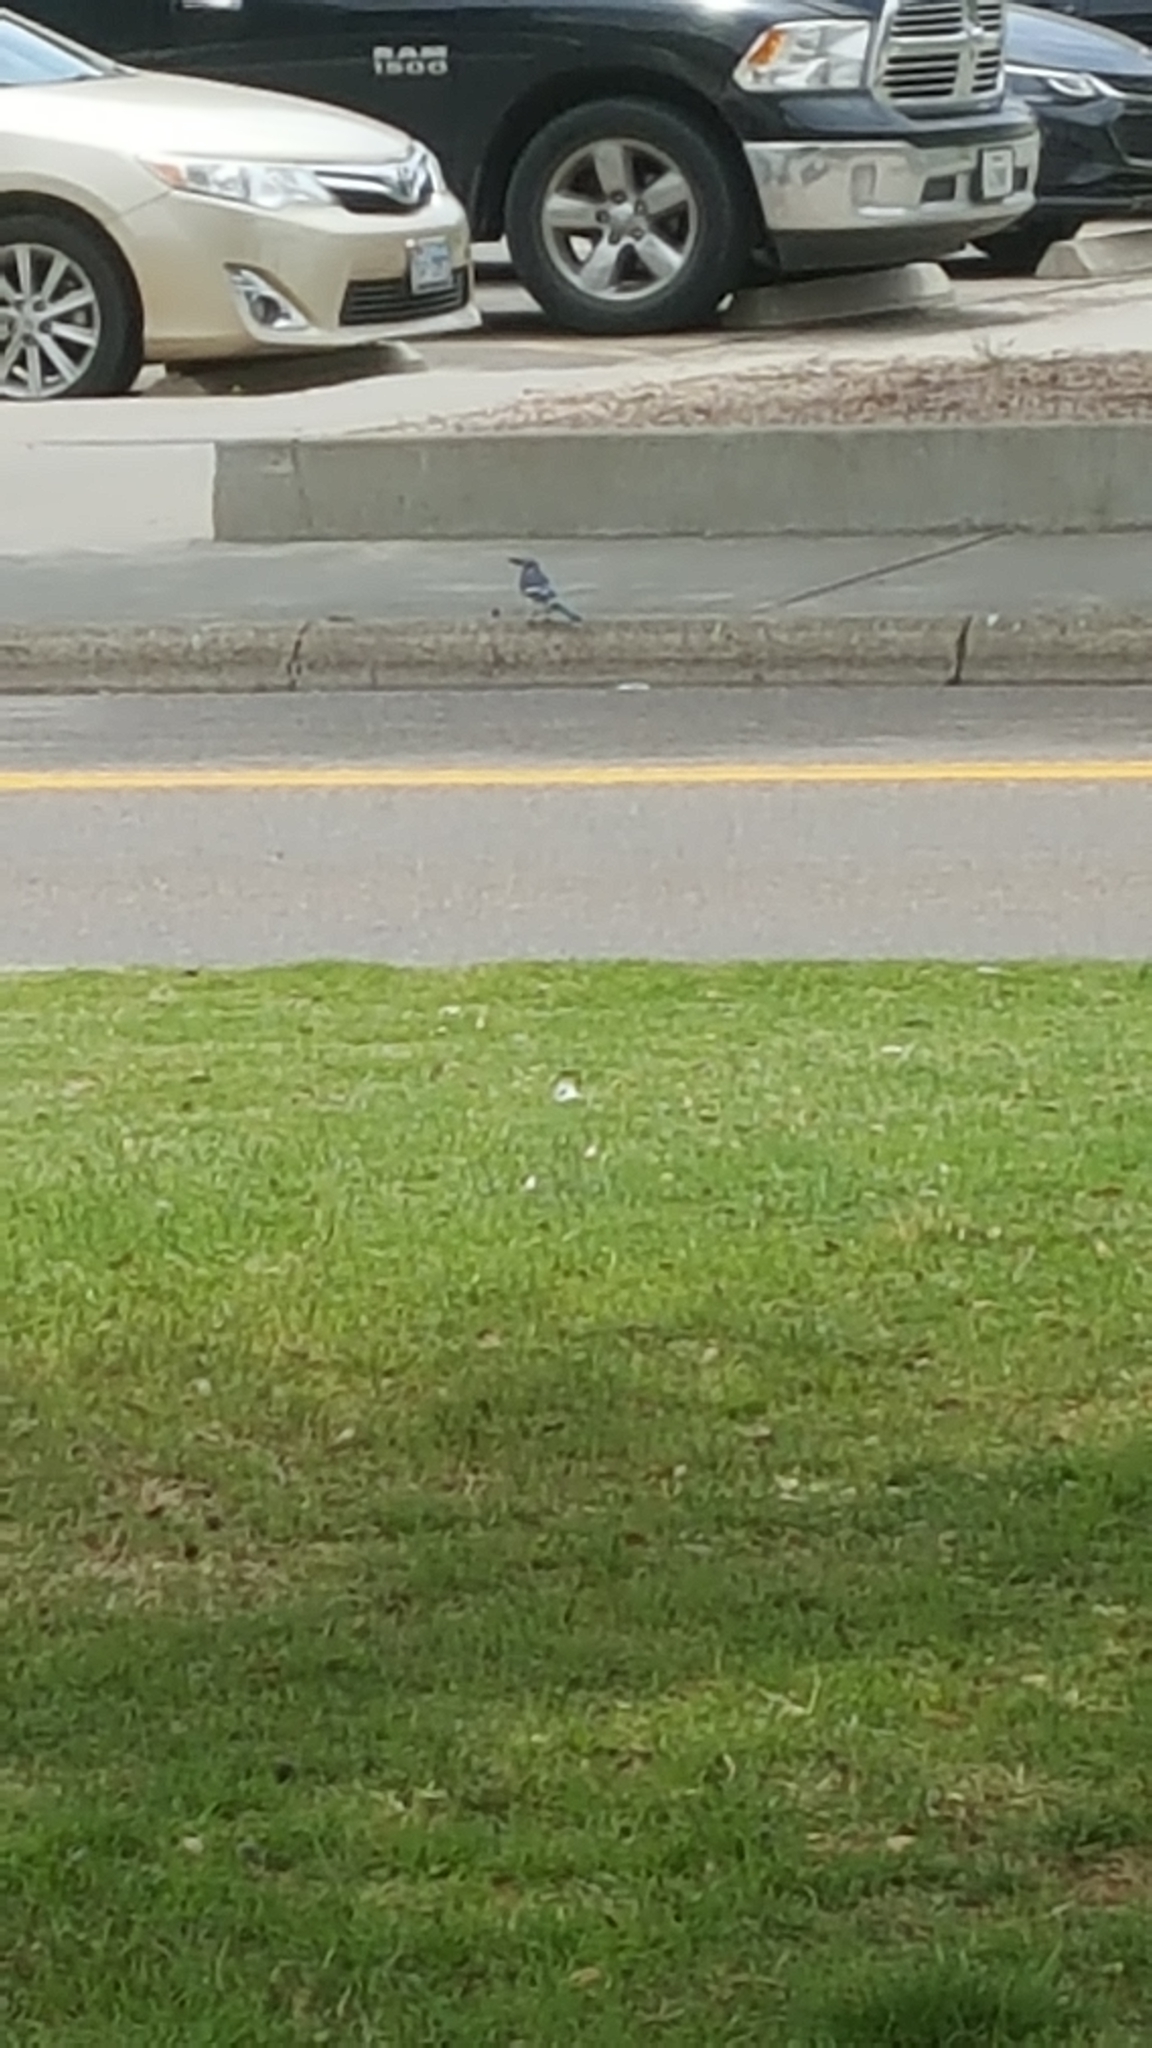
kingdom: Animalia
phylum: Chordata
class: Aves
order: Passeriformes
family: Corvidae
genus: Cyanocitta
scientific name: Cyanocitta cristata
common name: Blue jay
